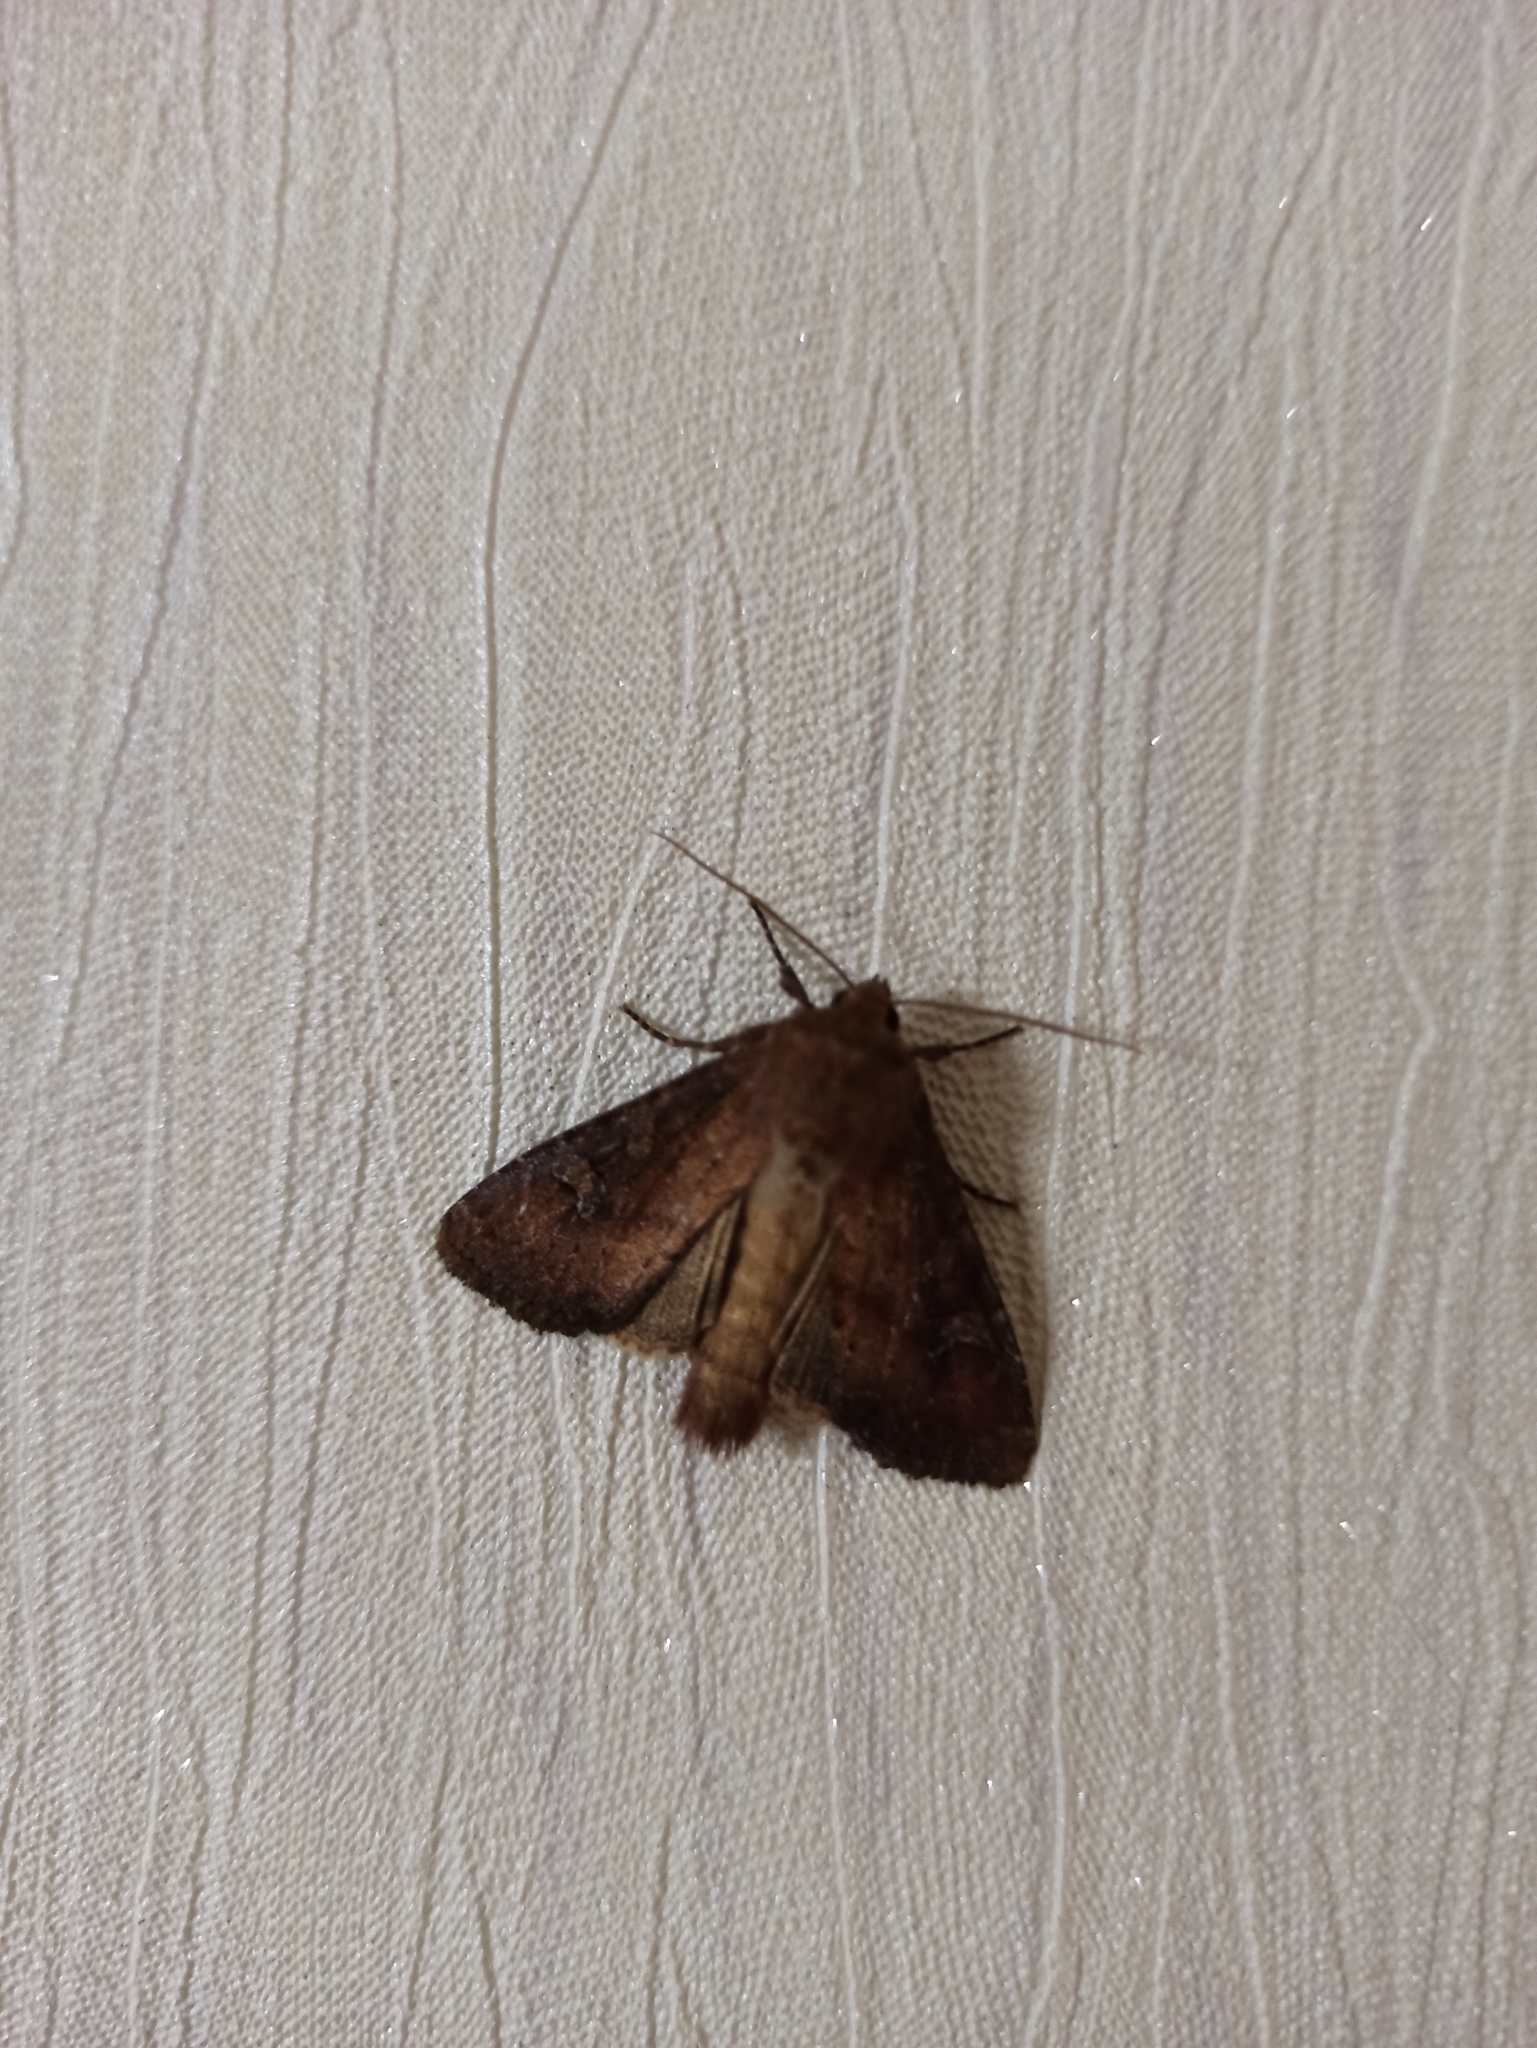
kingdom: Animalia
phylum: Arthropoda
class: Insecta
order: Lepidoptera
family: Noctuidae
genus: Apamea
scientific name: Apamea lateritia
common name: Scarce brindle
